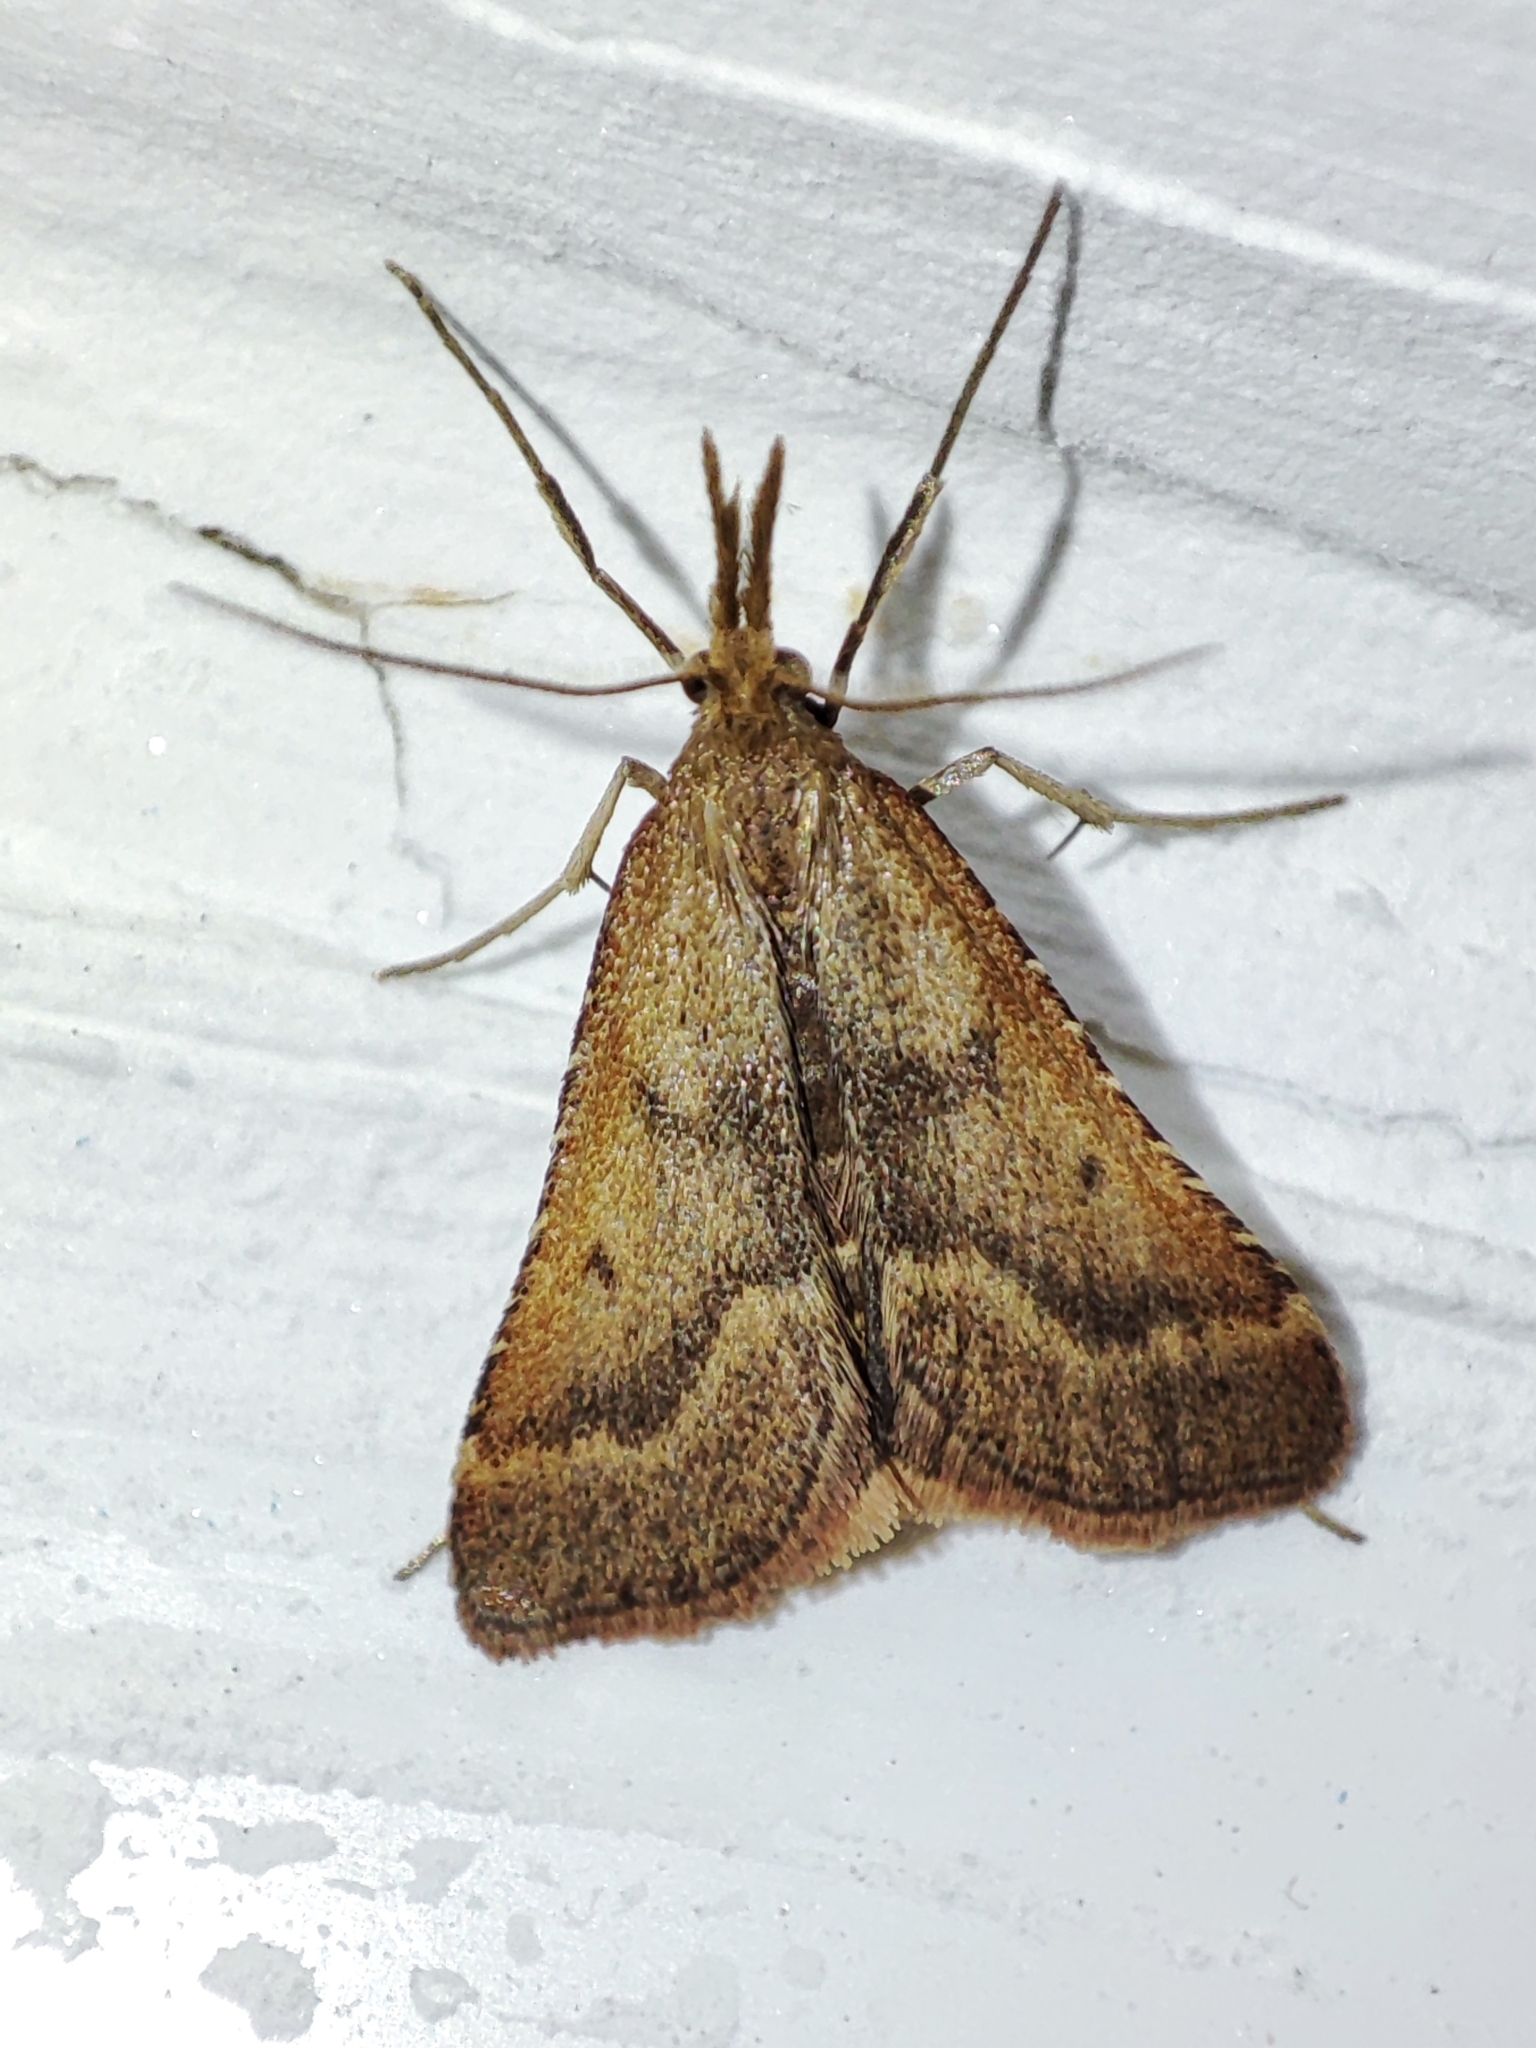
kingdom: Animalia
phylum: Arthropoda
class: Insecta
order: Lepidoptera
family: Pyralidae
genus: Synaphe
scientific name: Synaphe punctalis
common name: Long-legged tabby
